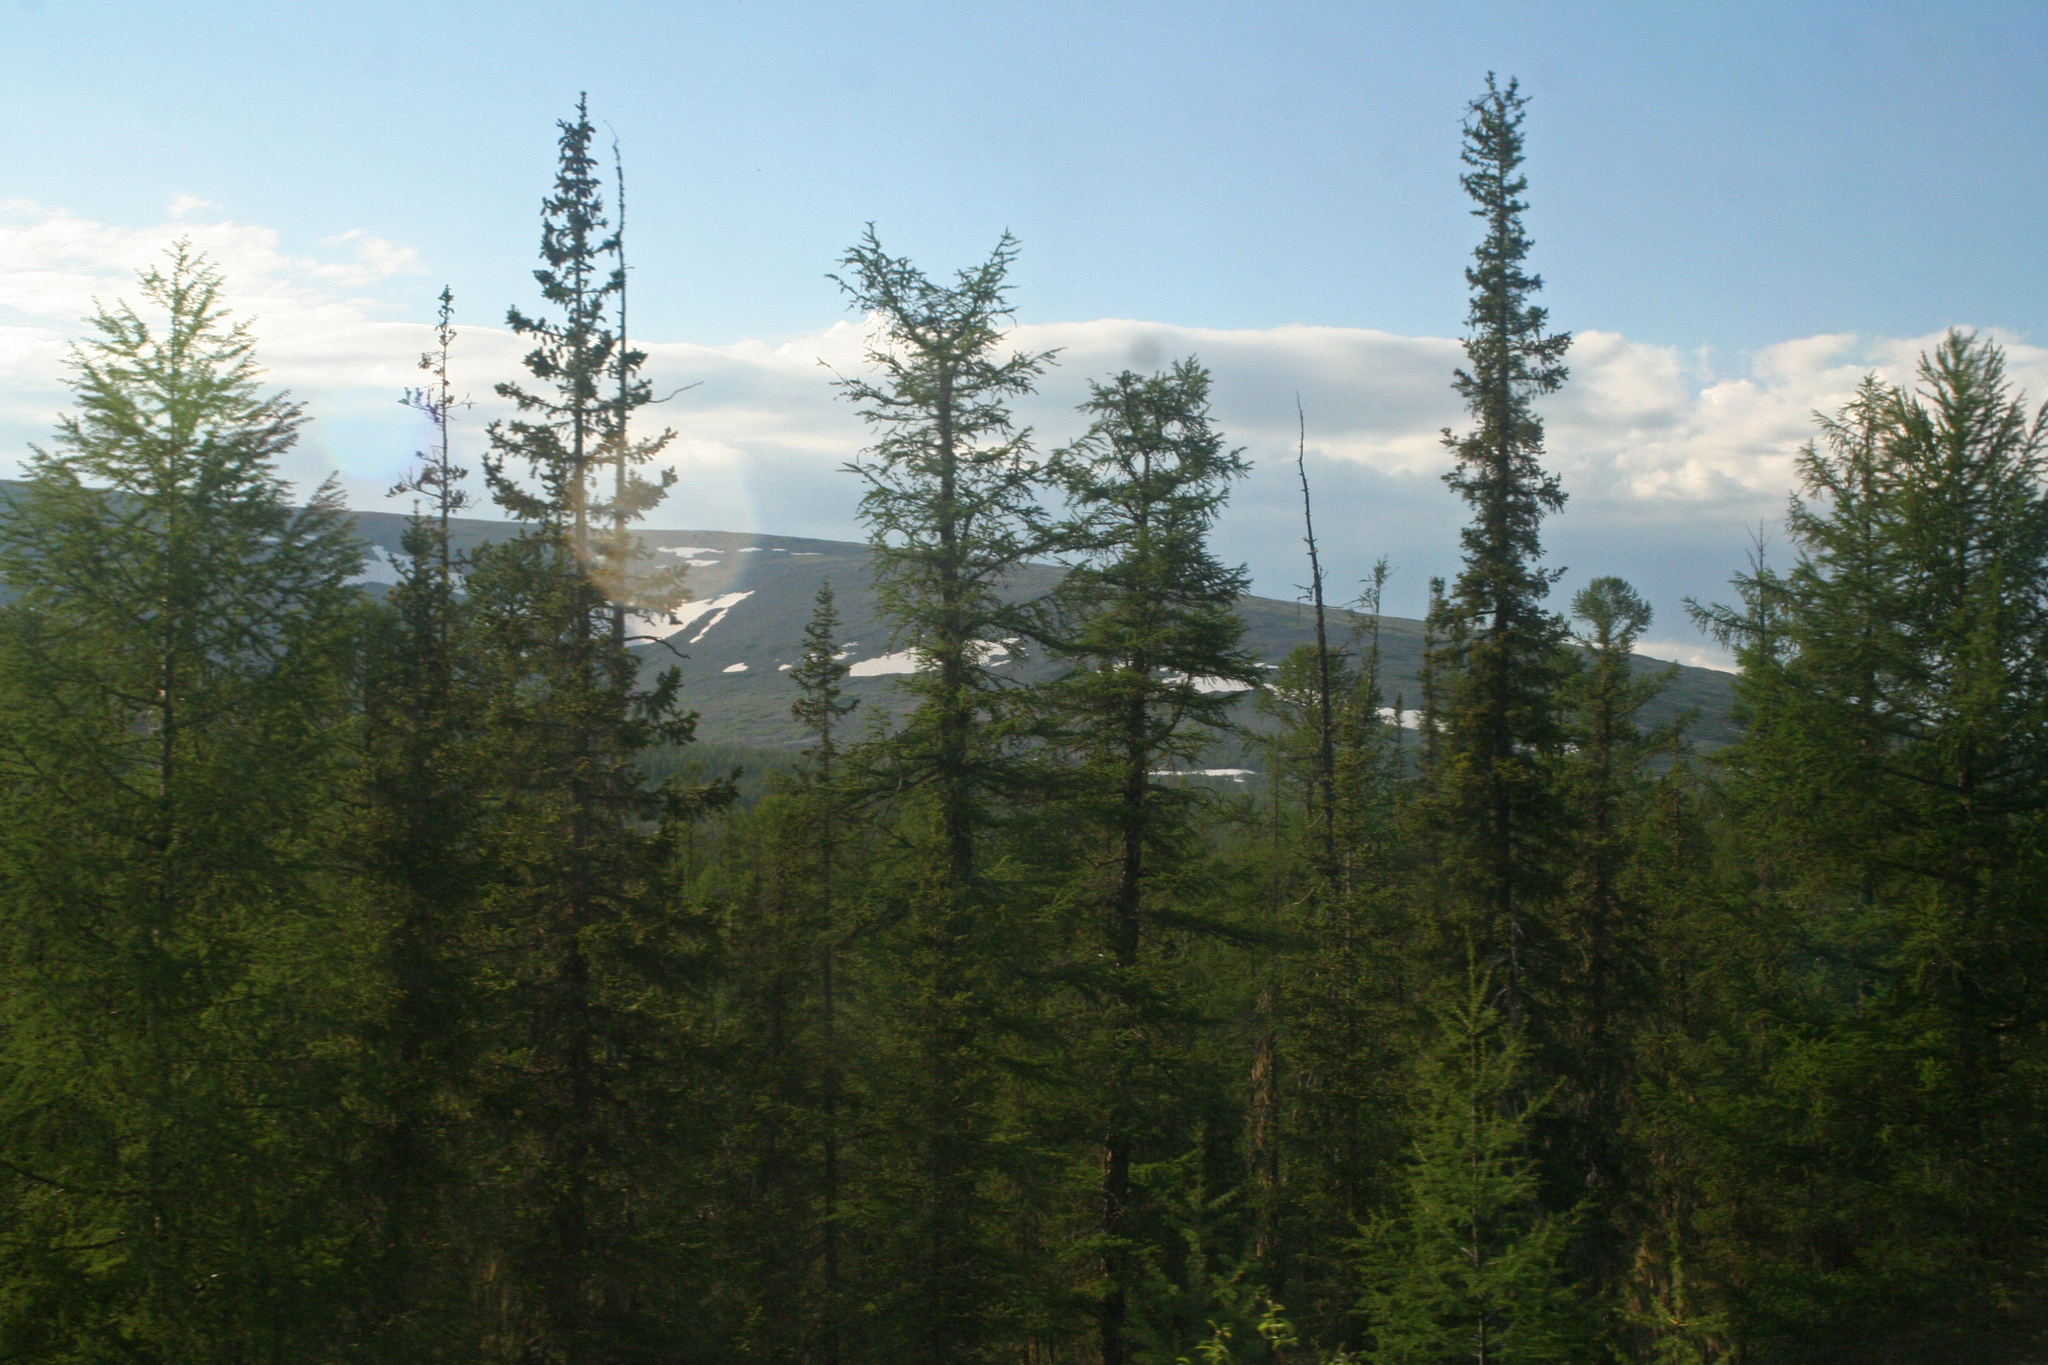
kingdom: Plantae
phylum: Tracheophyta
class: Pinopsida
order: Pinales
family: Pinaceae
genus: Picea
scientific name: Picea obovata
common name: Siberian spruce
